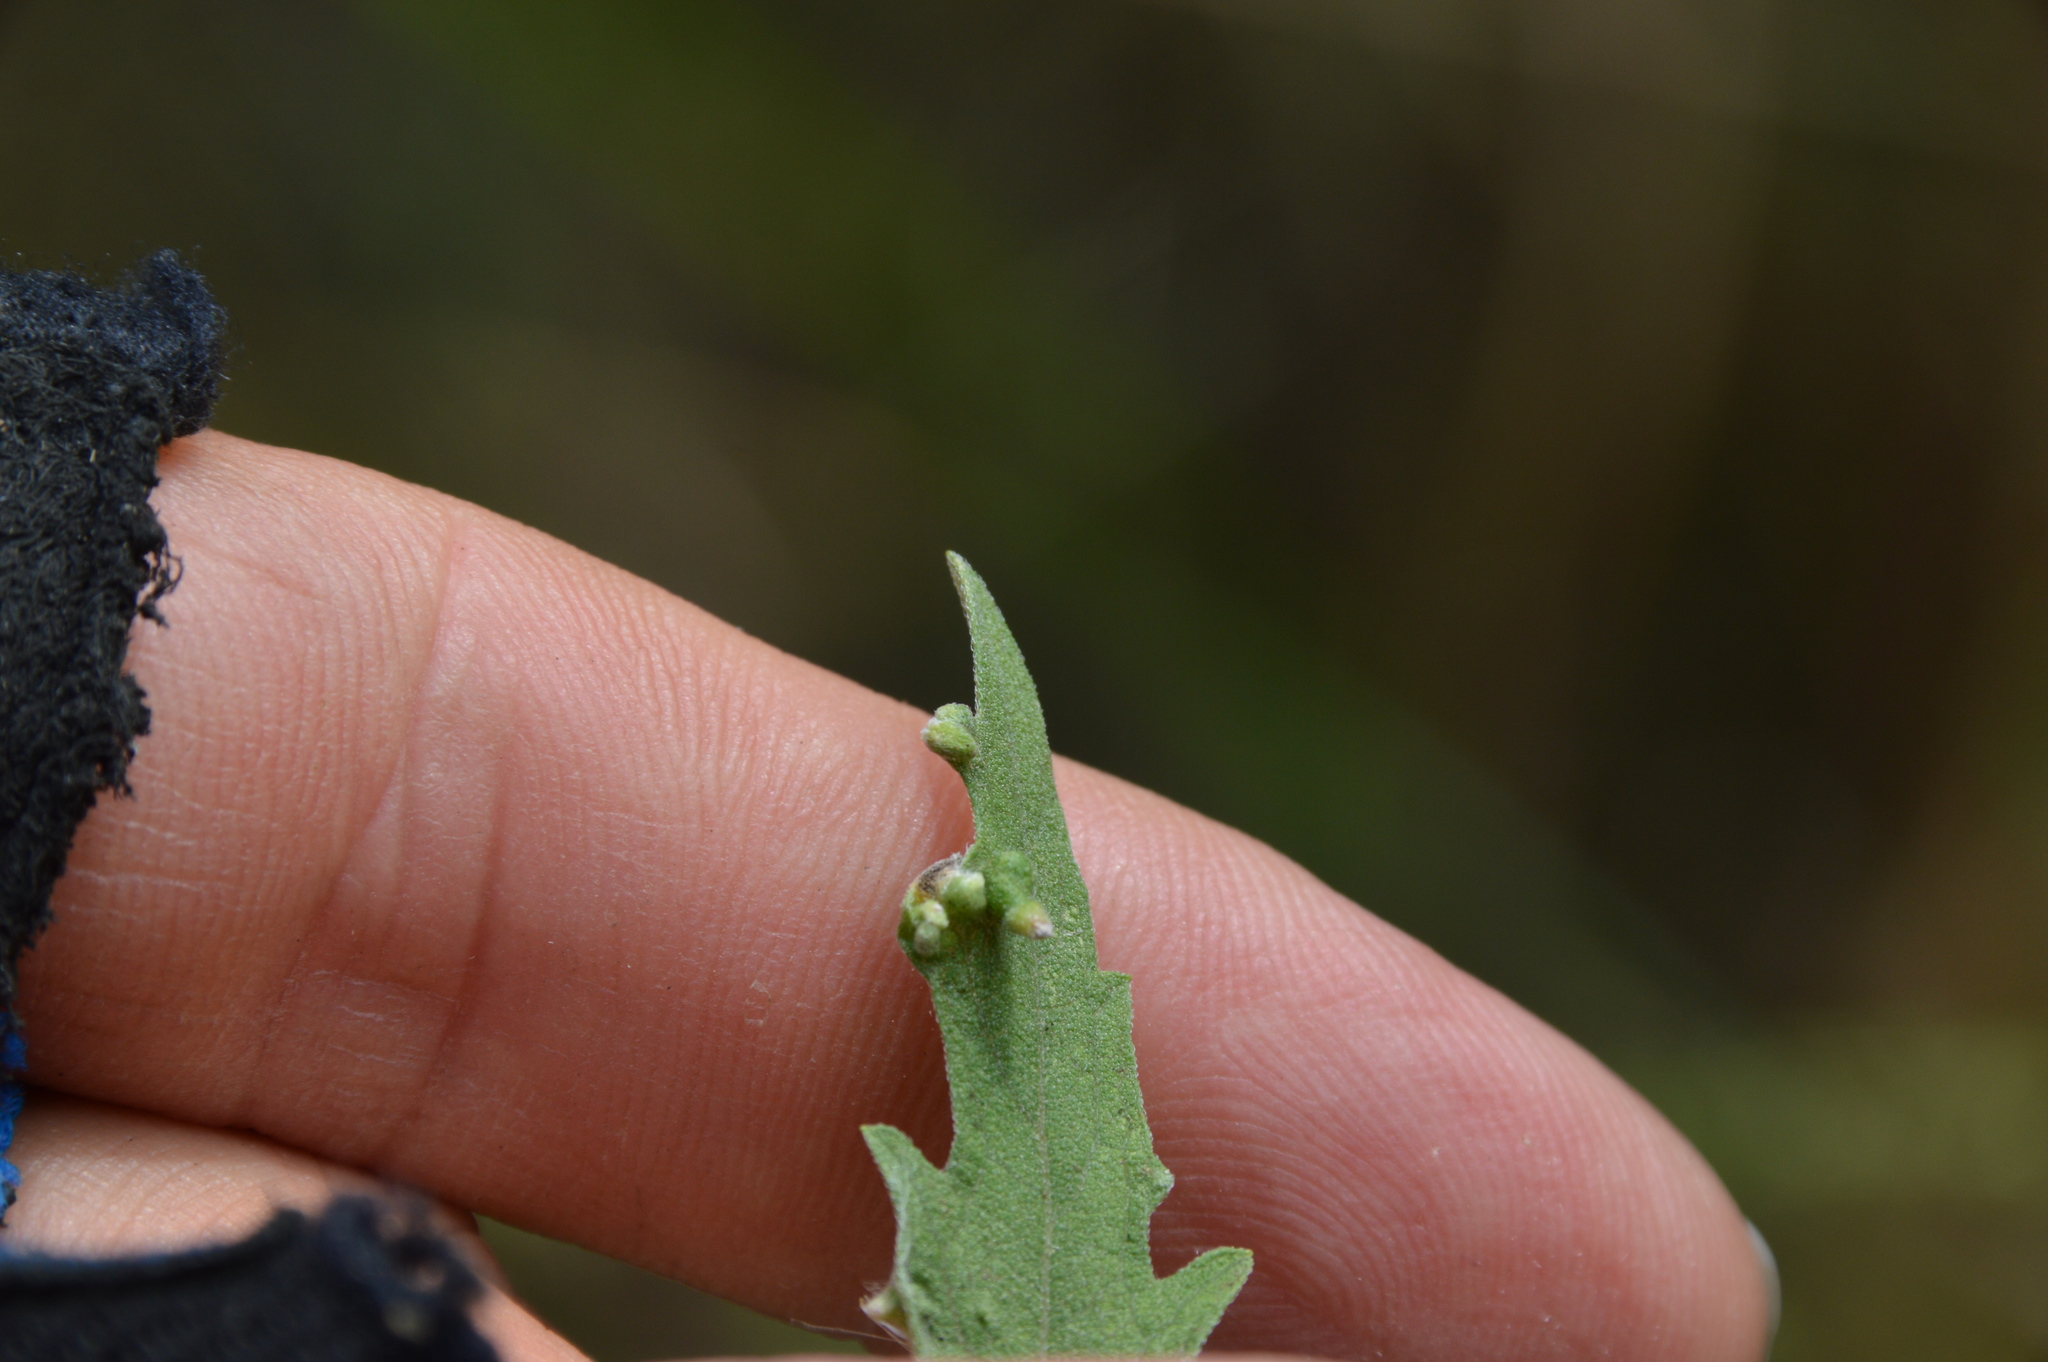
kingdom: Animalia
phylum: Arthropoda
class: Arachnida
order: Trombidiformes
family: Eriophyidae
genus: Aceria
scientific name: Aceria
